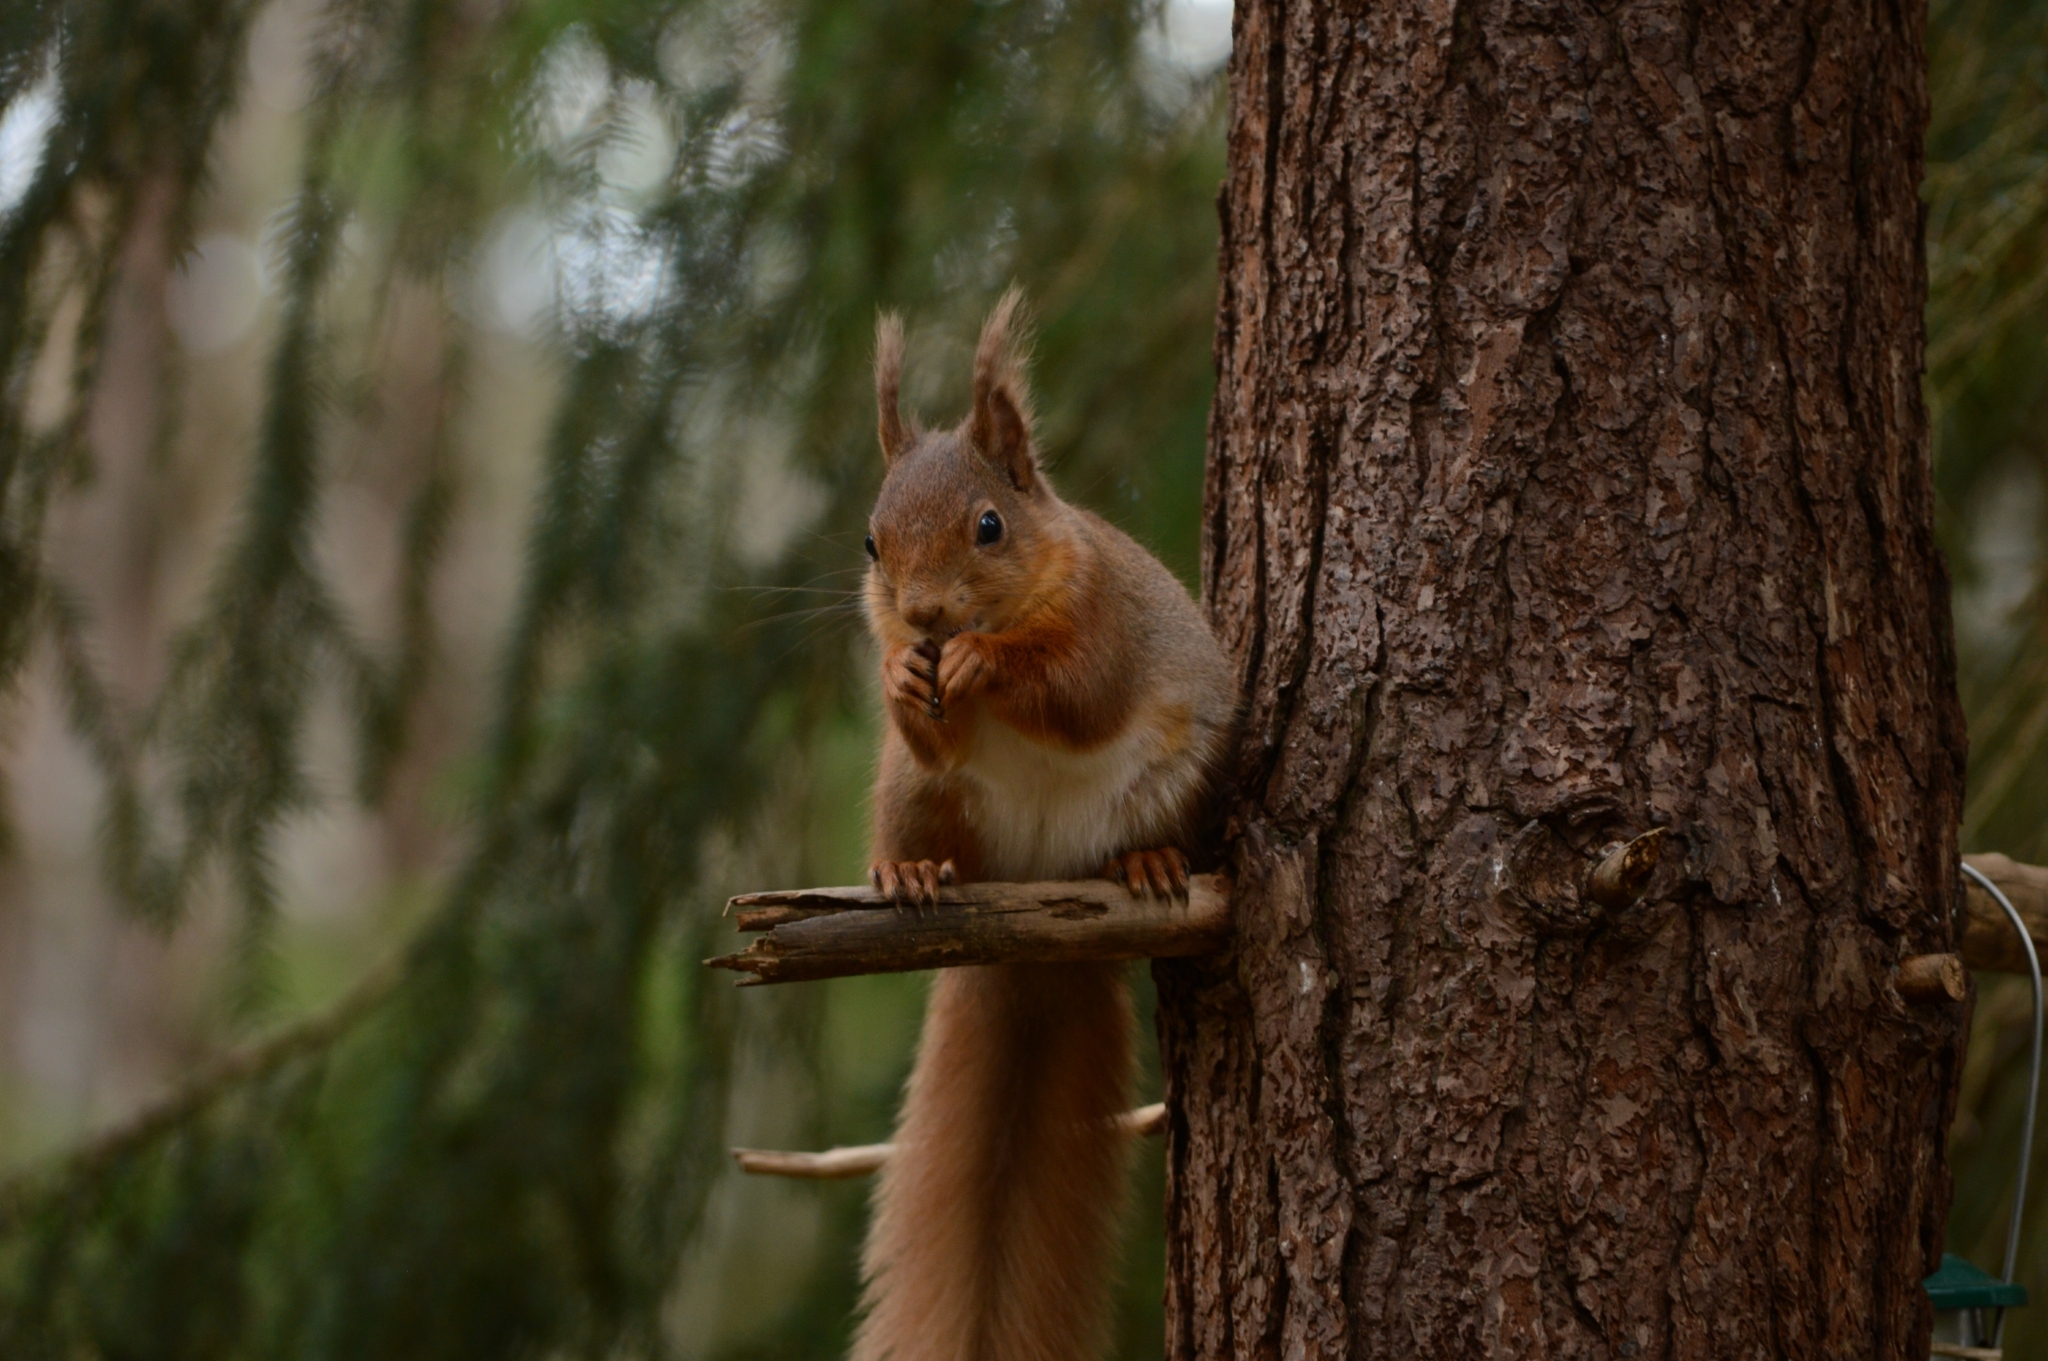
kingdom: Animalia
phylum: Chordata
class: Mammalia
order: Rodentia
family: Sciuridae
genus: Sciurus
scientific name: Sciurus vulgaris
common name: Eurasian red squirrel
